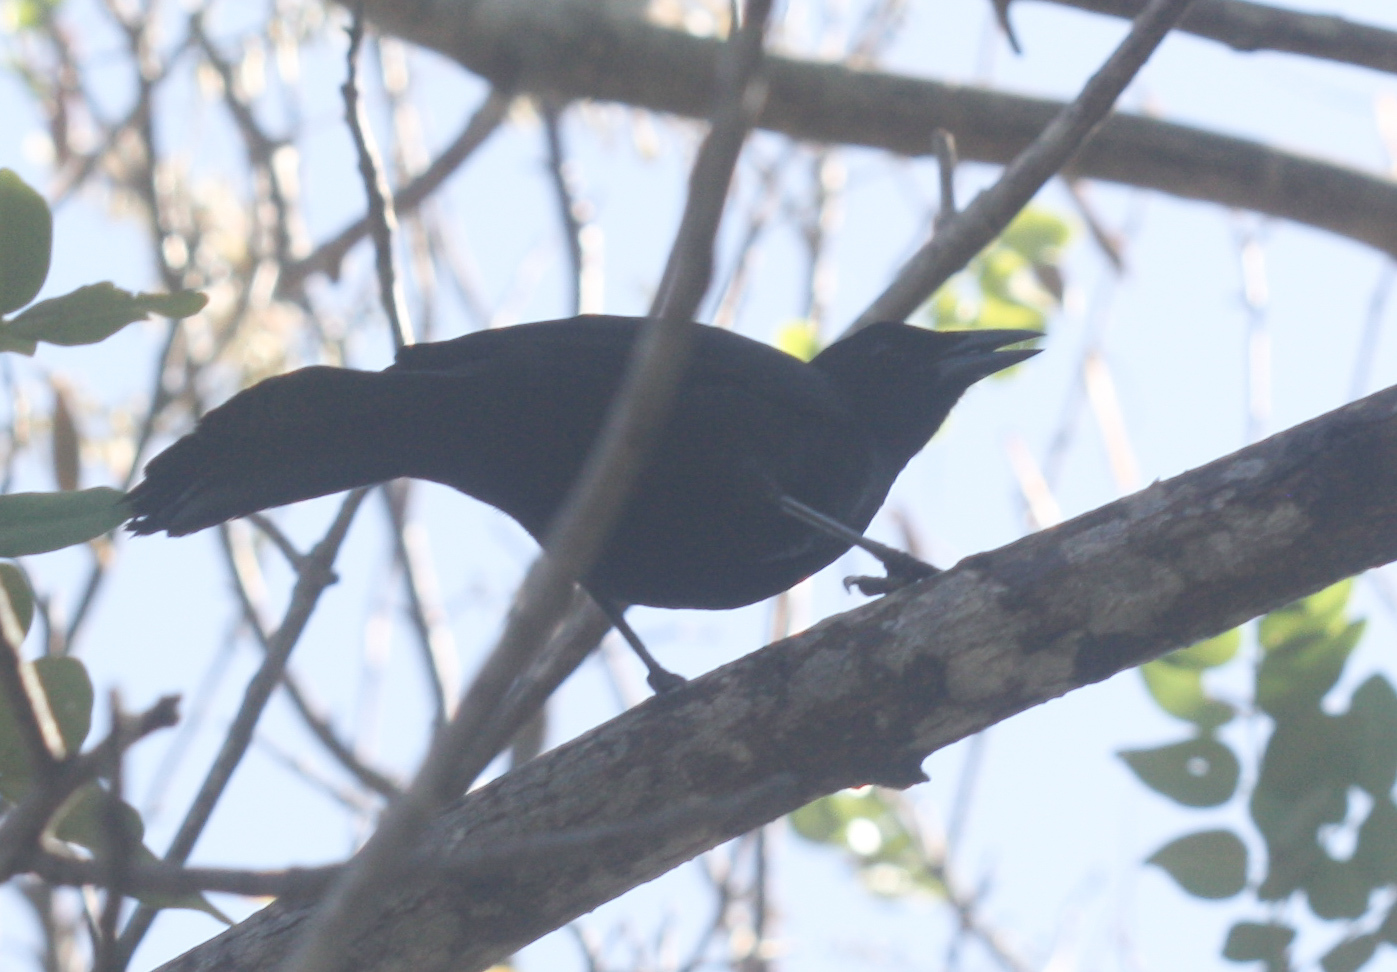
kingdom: Animalia
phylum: Chordata
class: Aves
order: Passeriformes
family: Icteridae
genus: Dives
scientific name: Dives dives
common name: Melodious blackbird
